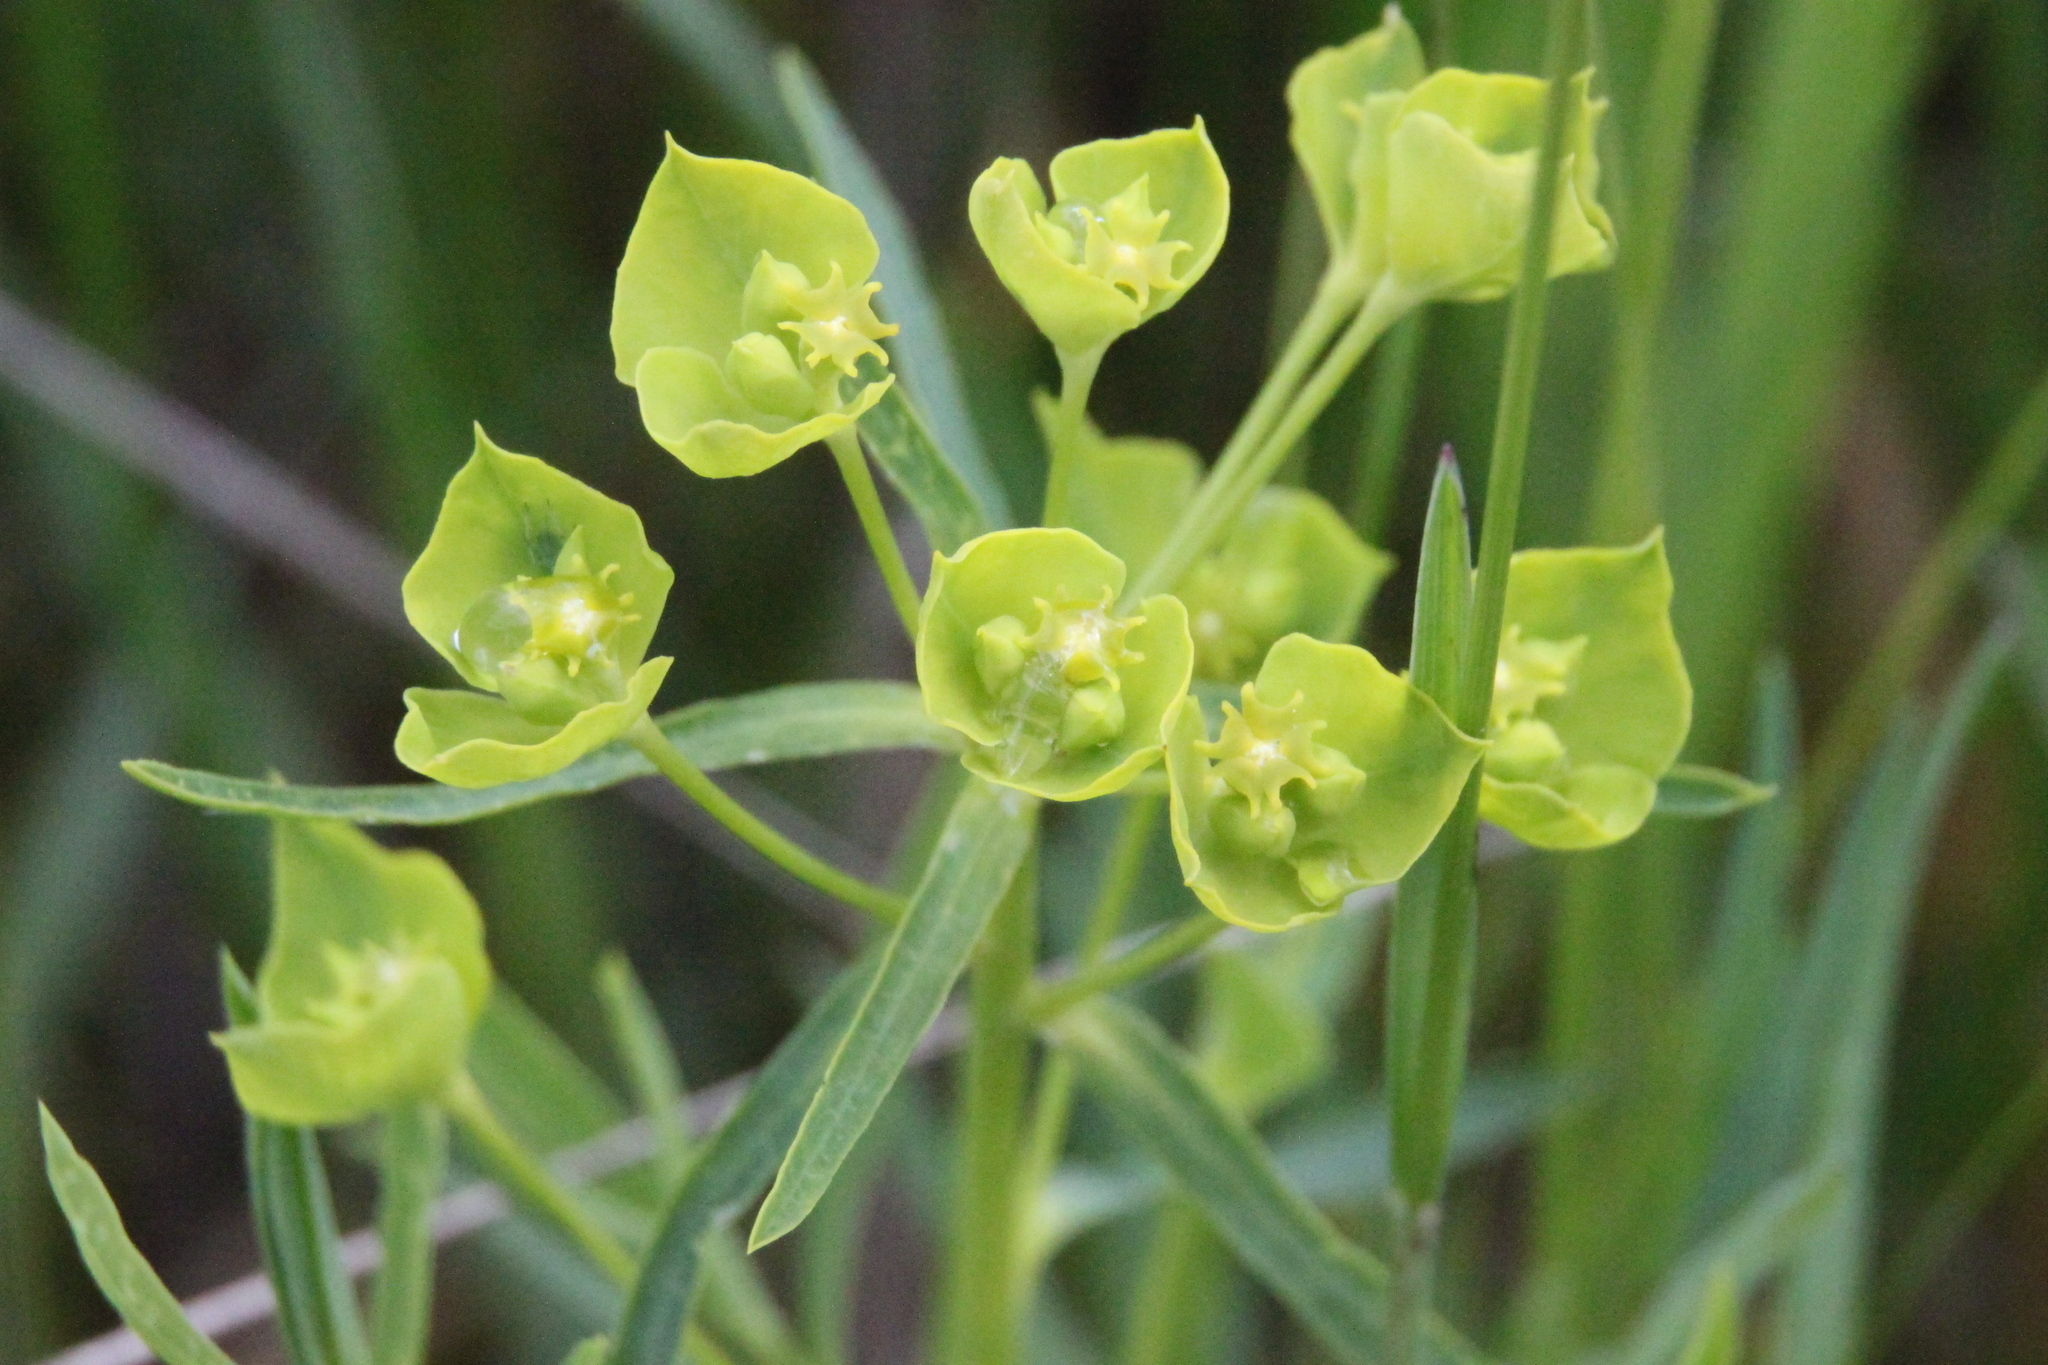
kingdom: Plantae
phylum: Tracheophyta
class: Magnoliopsida
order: Malpighiales
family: Euphorbiaceae
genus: Euphorbia
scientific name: Euphorbia virgata
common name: Leafy spurge
